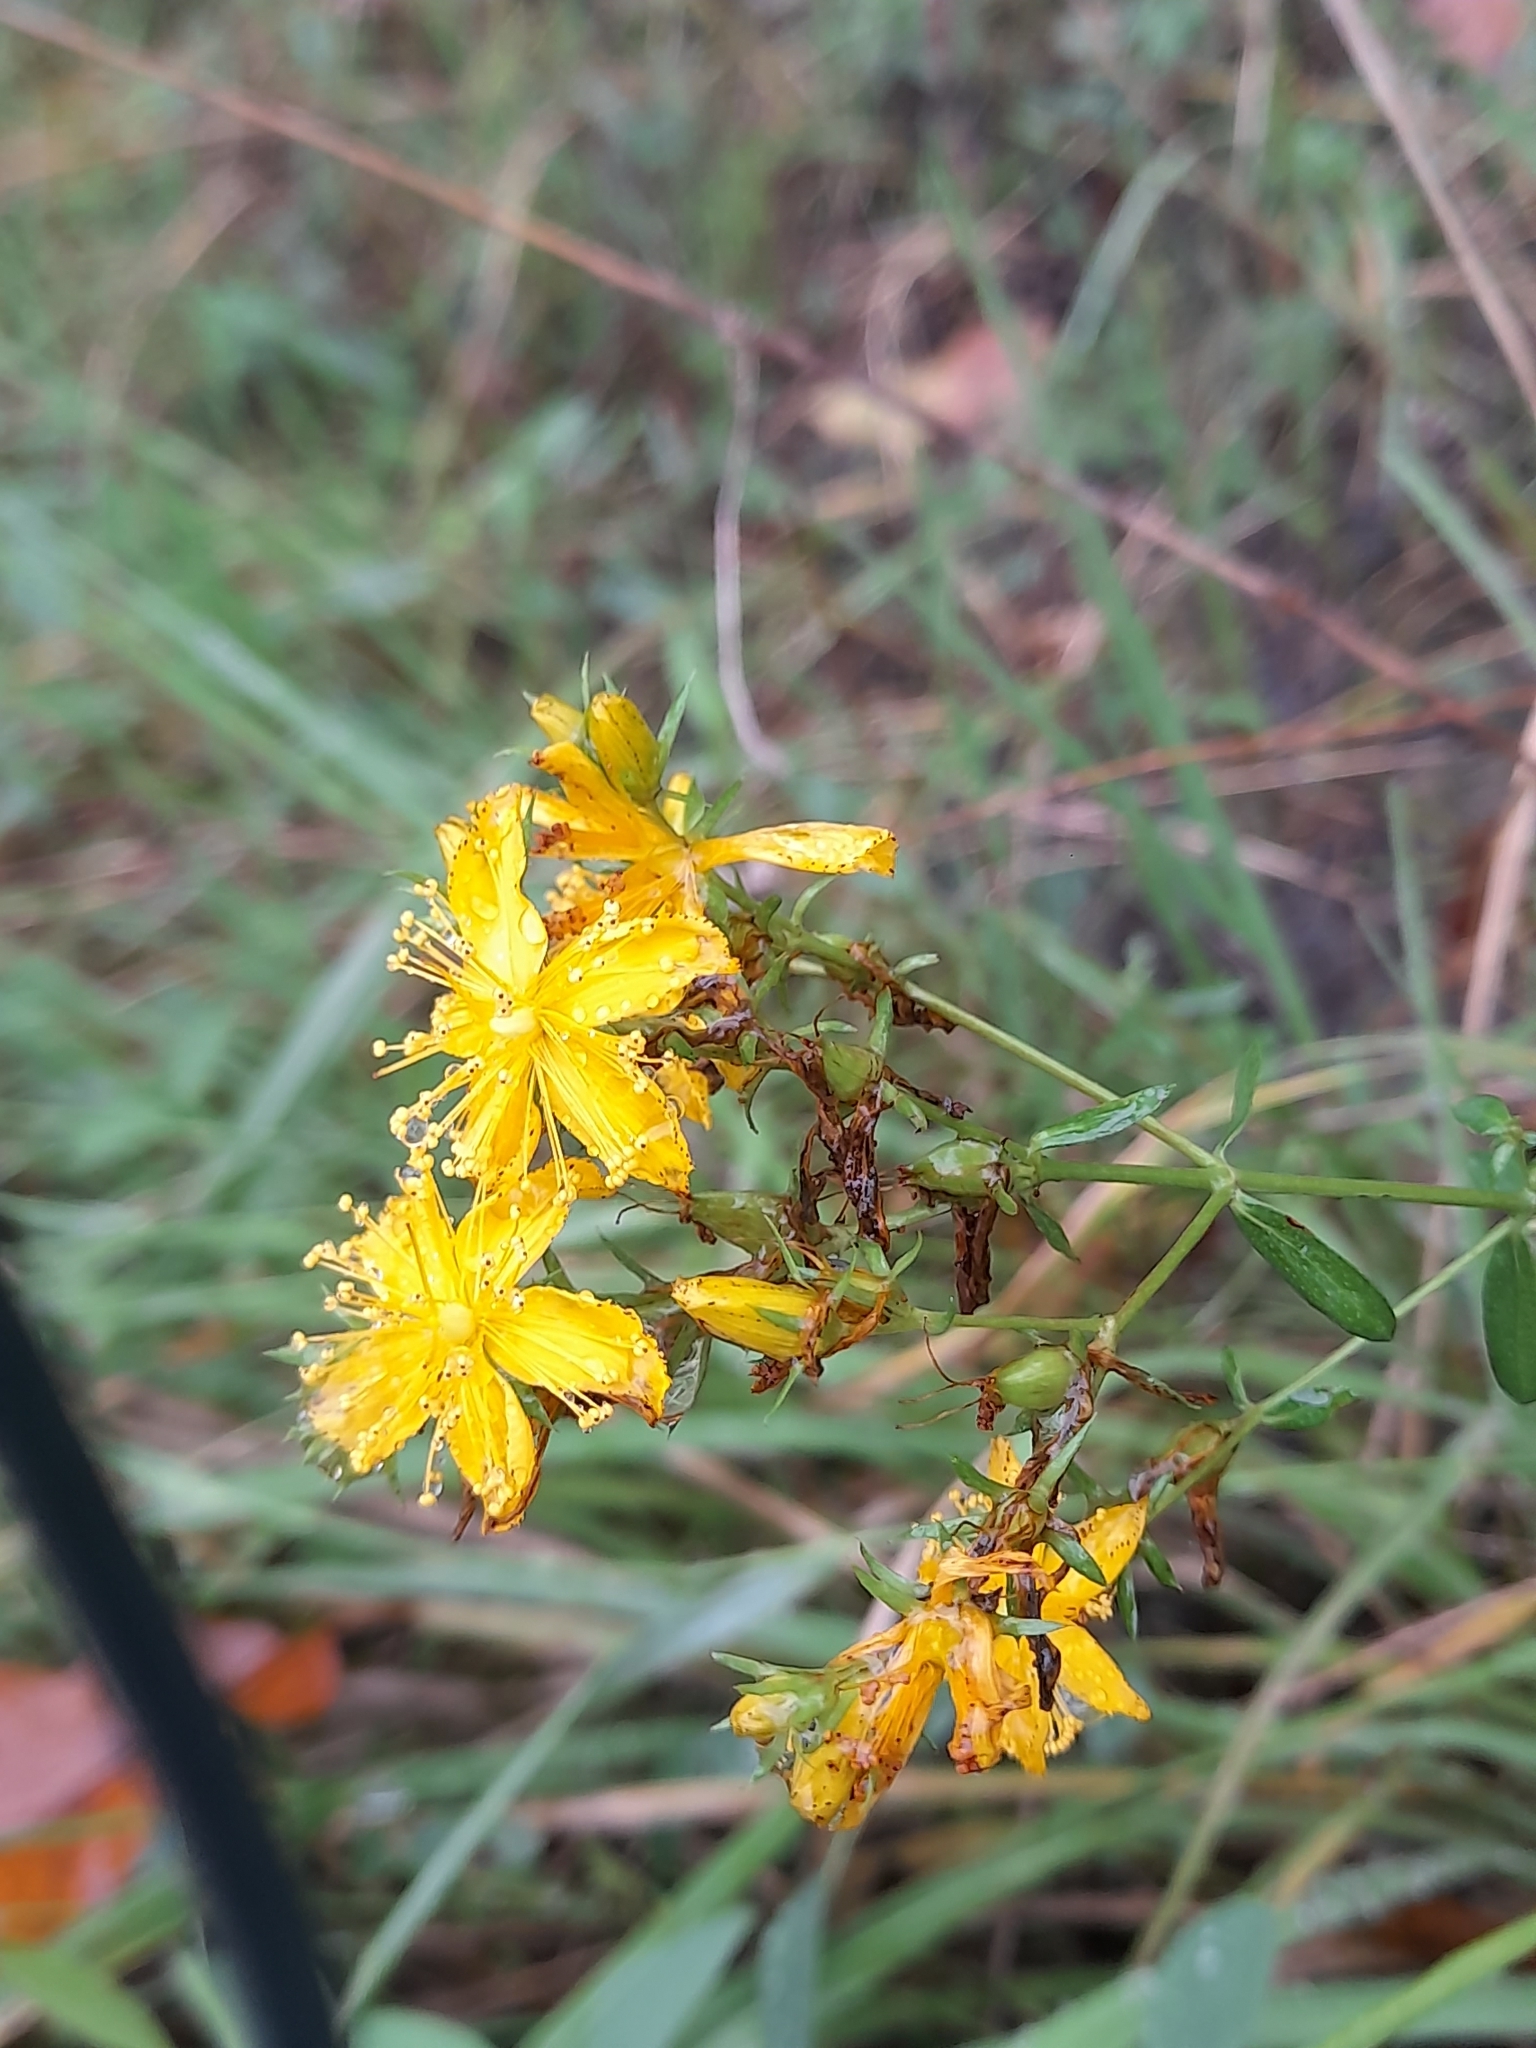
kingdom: Plantae
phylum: Tracheophyta
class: Magnoliopsida
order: Malpighiales
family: Hypericaceae
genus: Hypericum
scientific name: Hypericum perforatum
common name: Common st. johnswort
